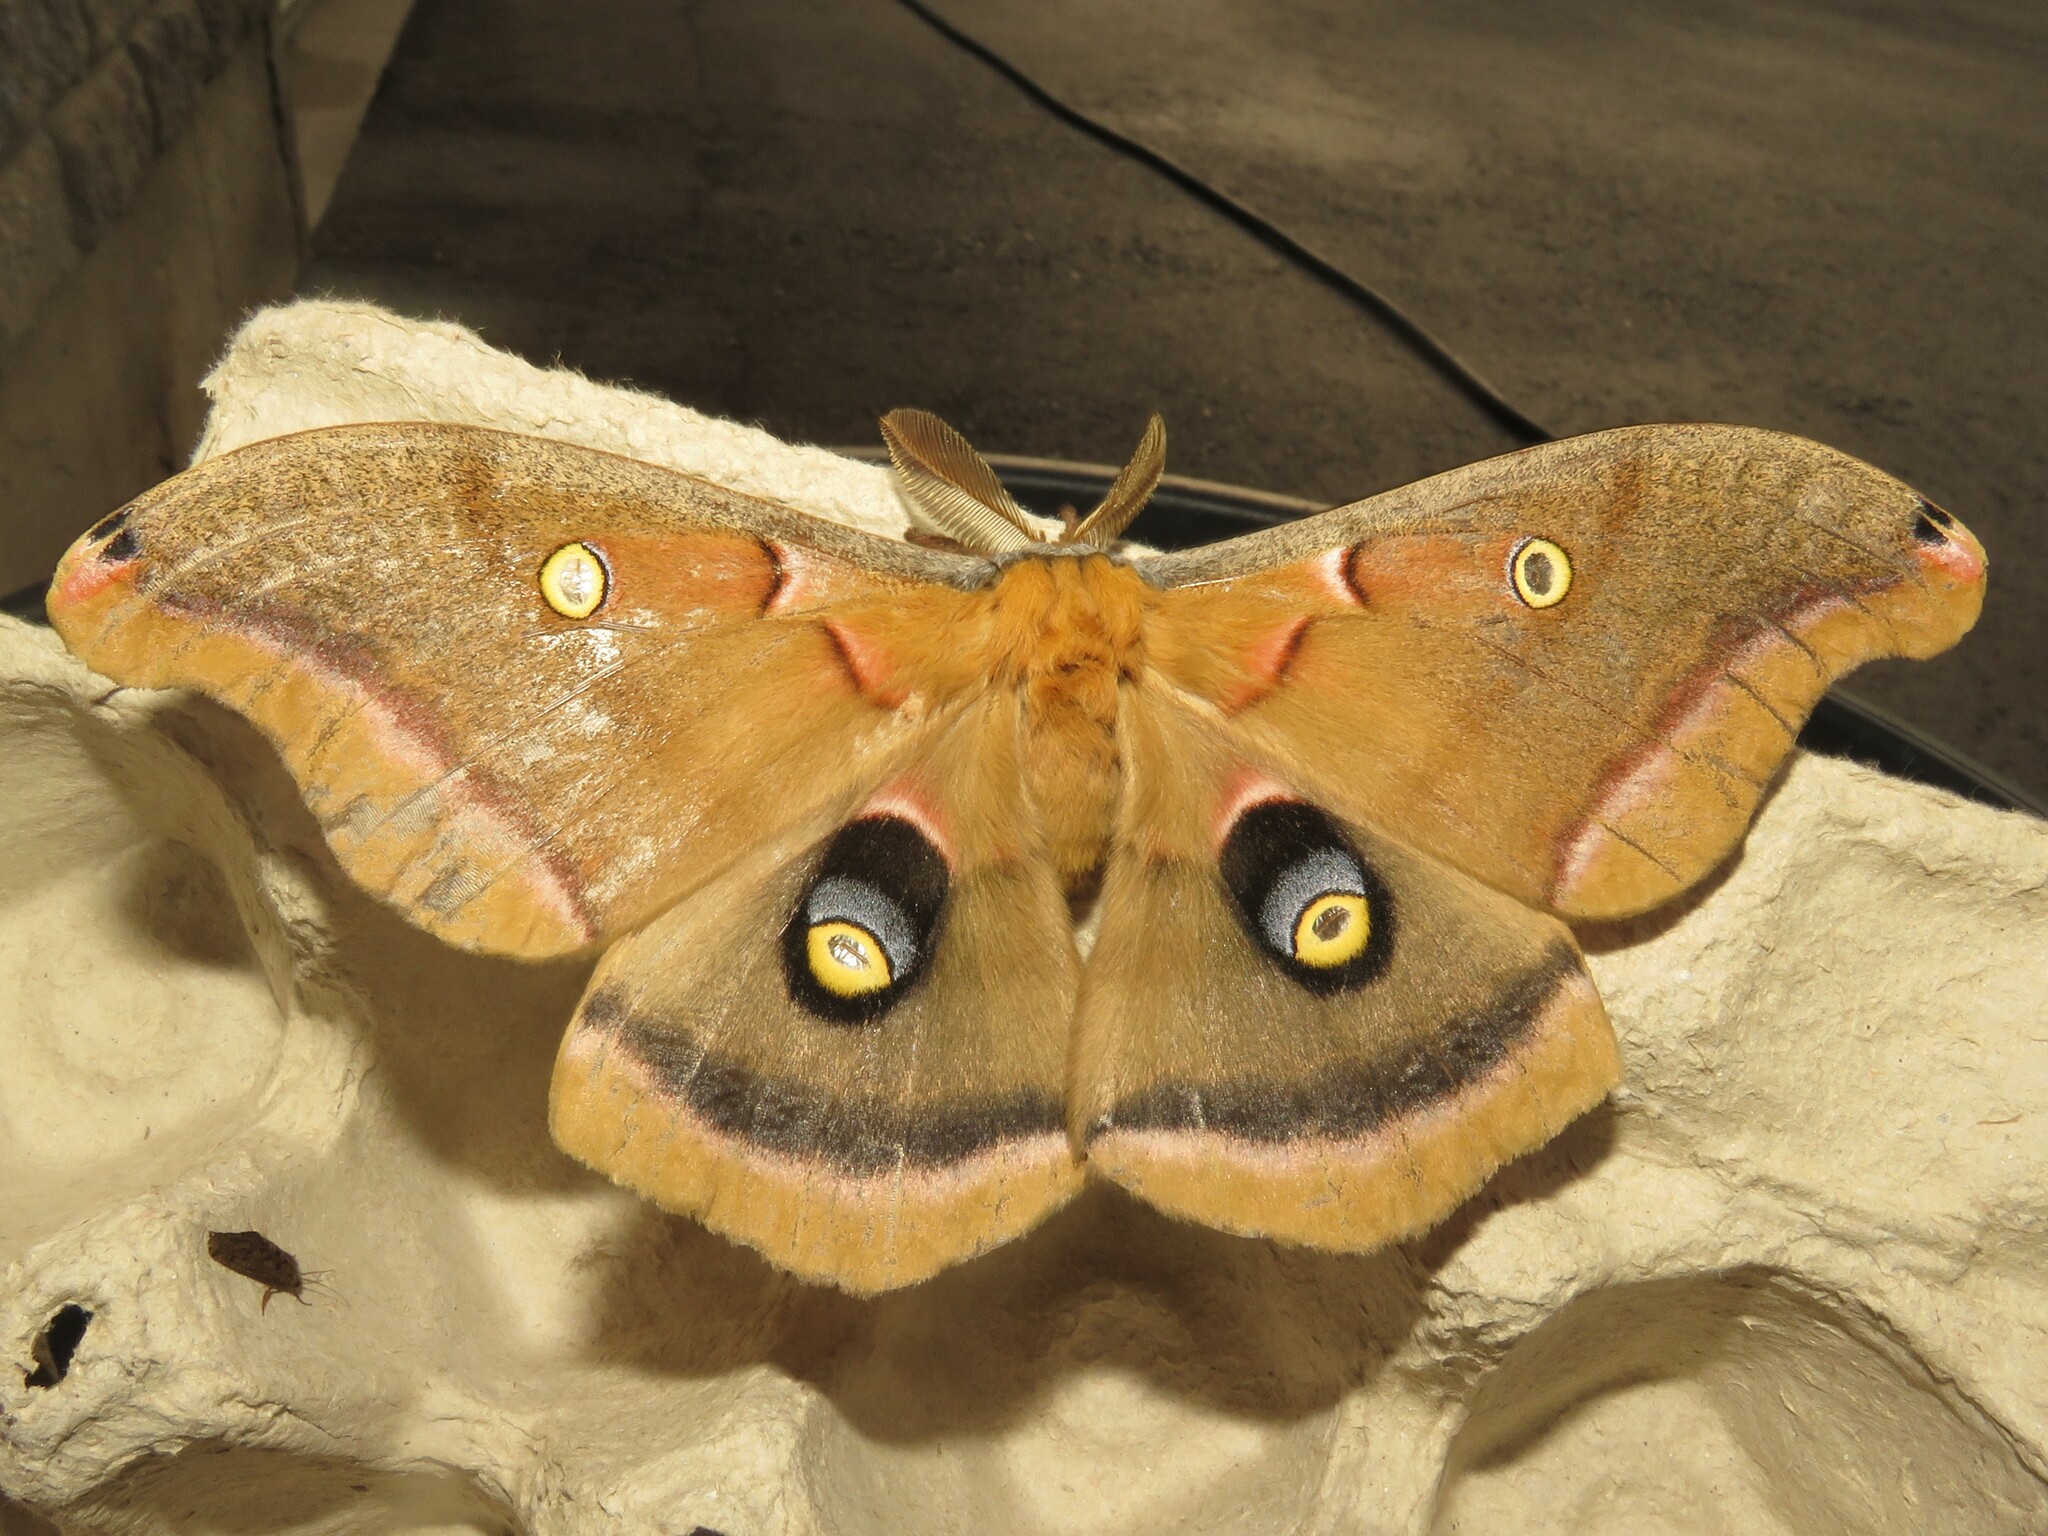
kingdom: Animalia
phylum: Arthropoda
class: Insecta
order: Lepidoptera
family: Saturniidae
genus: Antheraea
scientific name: Antheraea polyphemus
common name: Polyphemus moth
